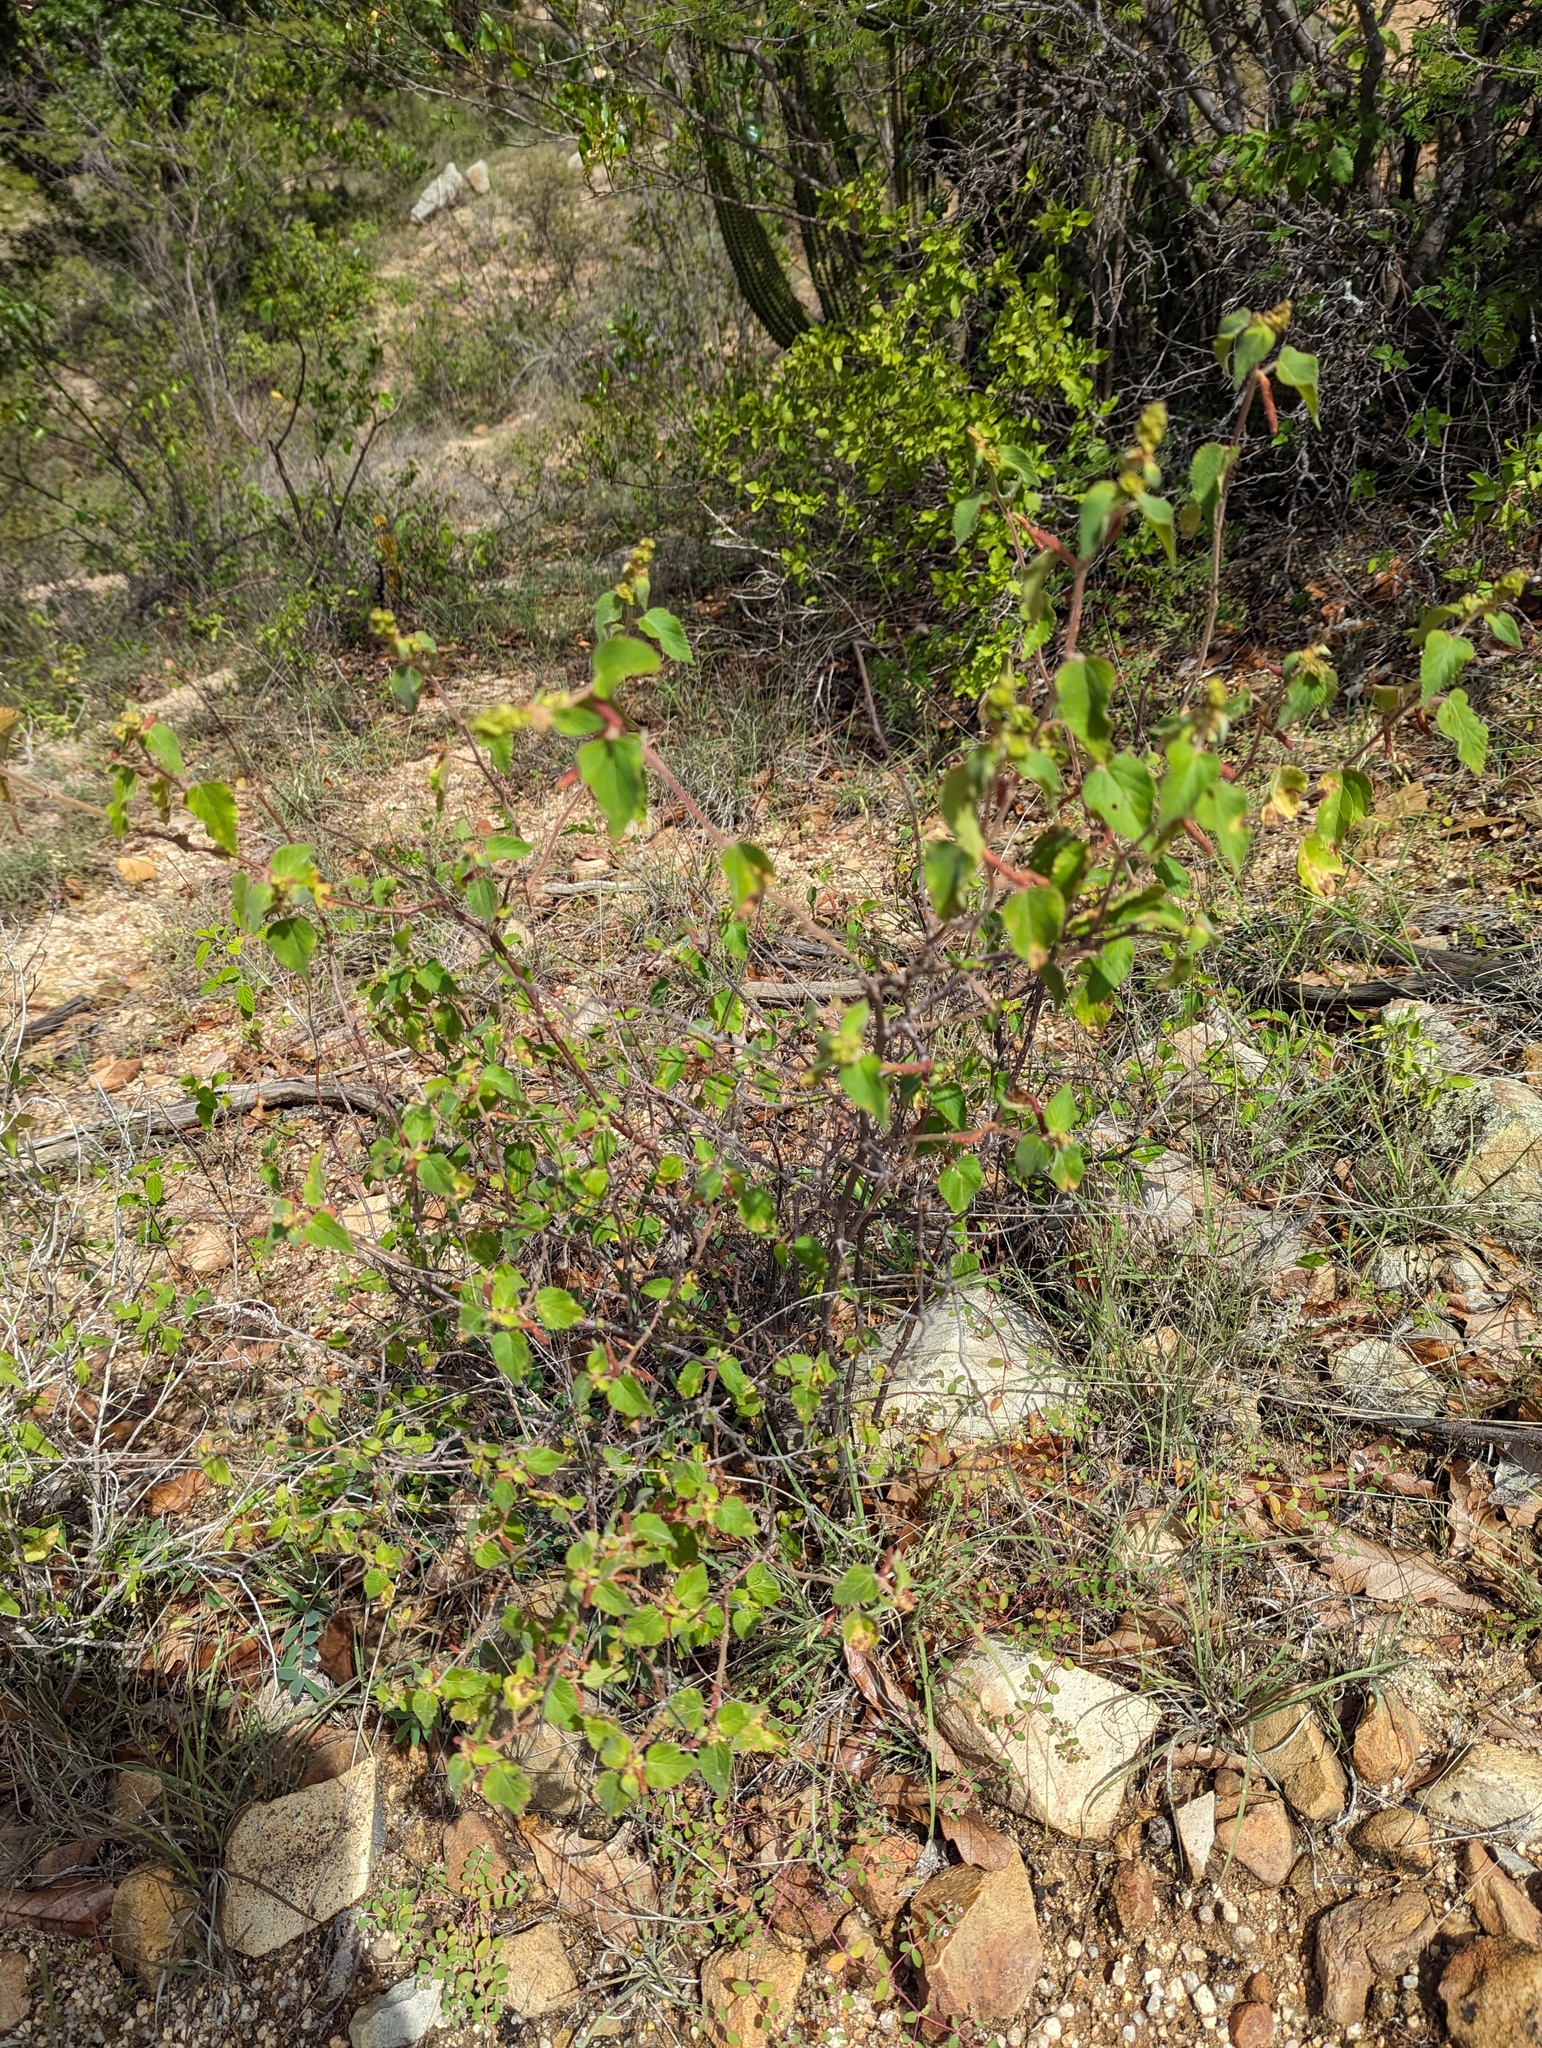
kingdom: Plantae
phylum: Tracheophyta
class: Magnoliopsida
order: Malpighiales
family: Euphorbiaceae
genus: Acalypha
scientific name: Acalypha californica
